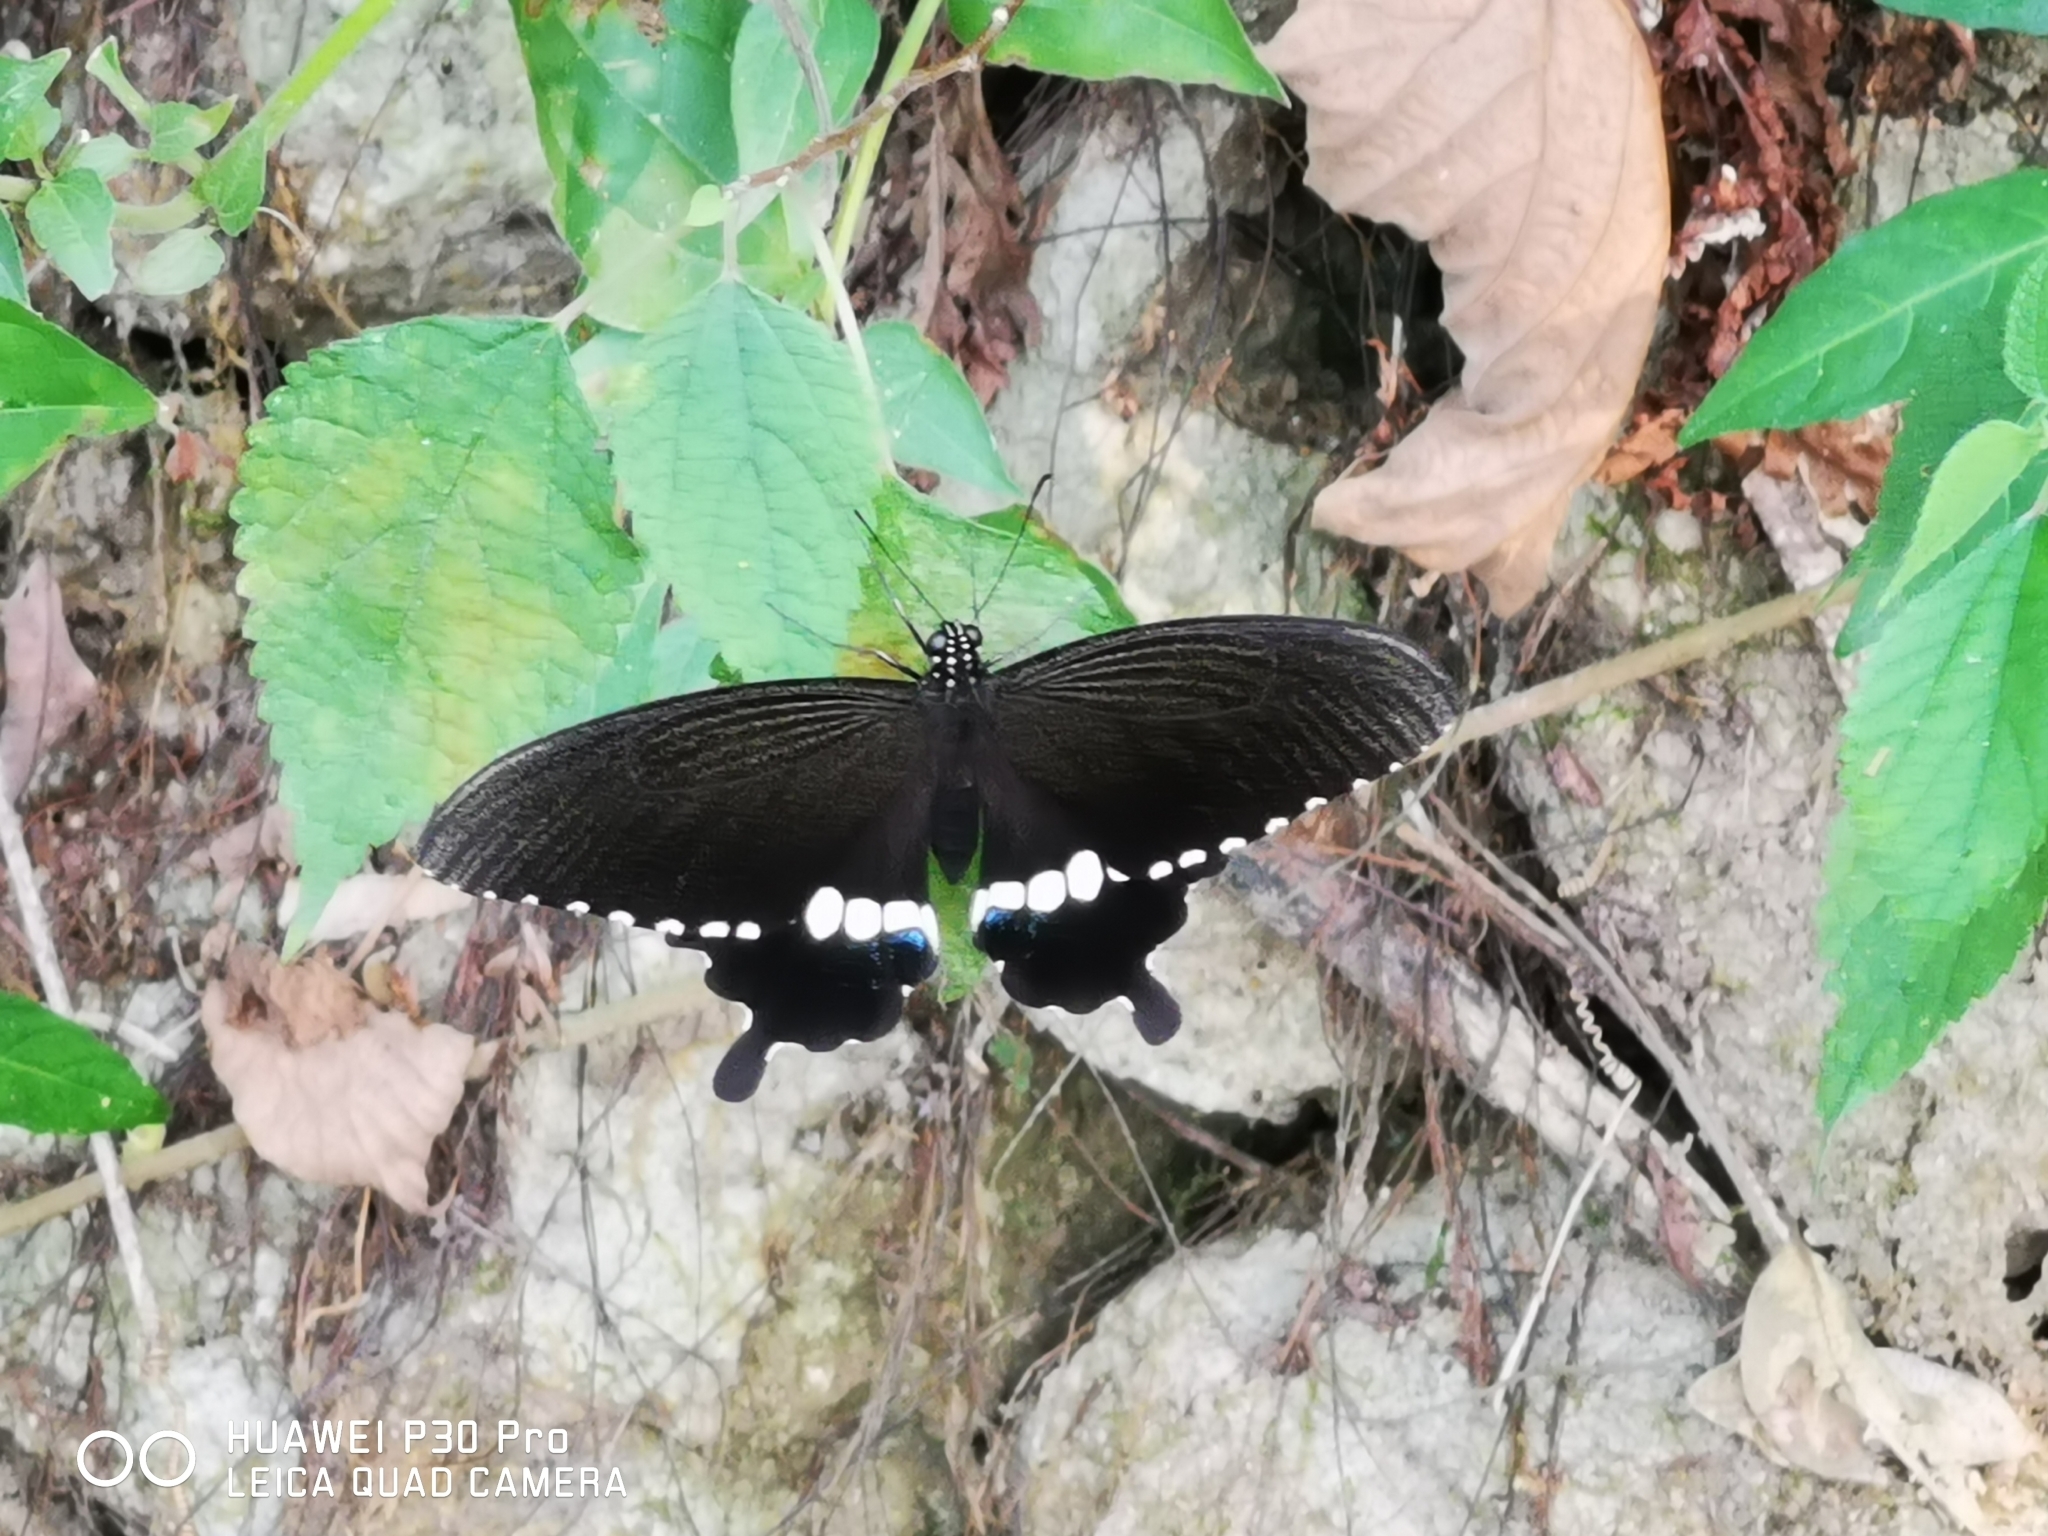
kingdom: Animalia
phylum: Arthropoda
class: Insecta
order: Lepidoptera
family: Papilionidae
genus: Papilio
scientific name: Papilio polytes
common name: Common mormon
